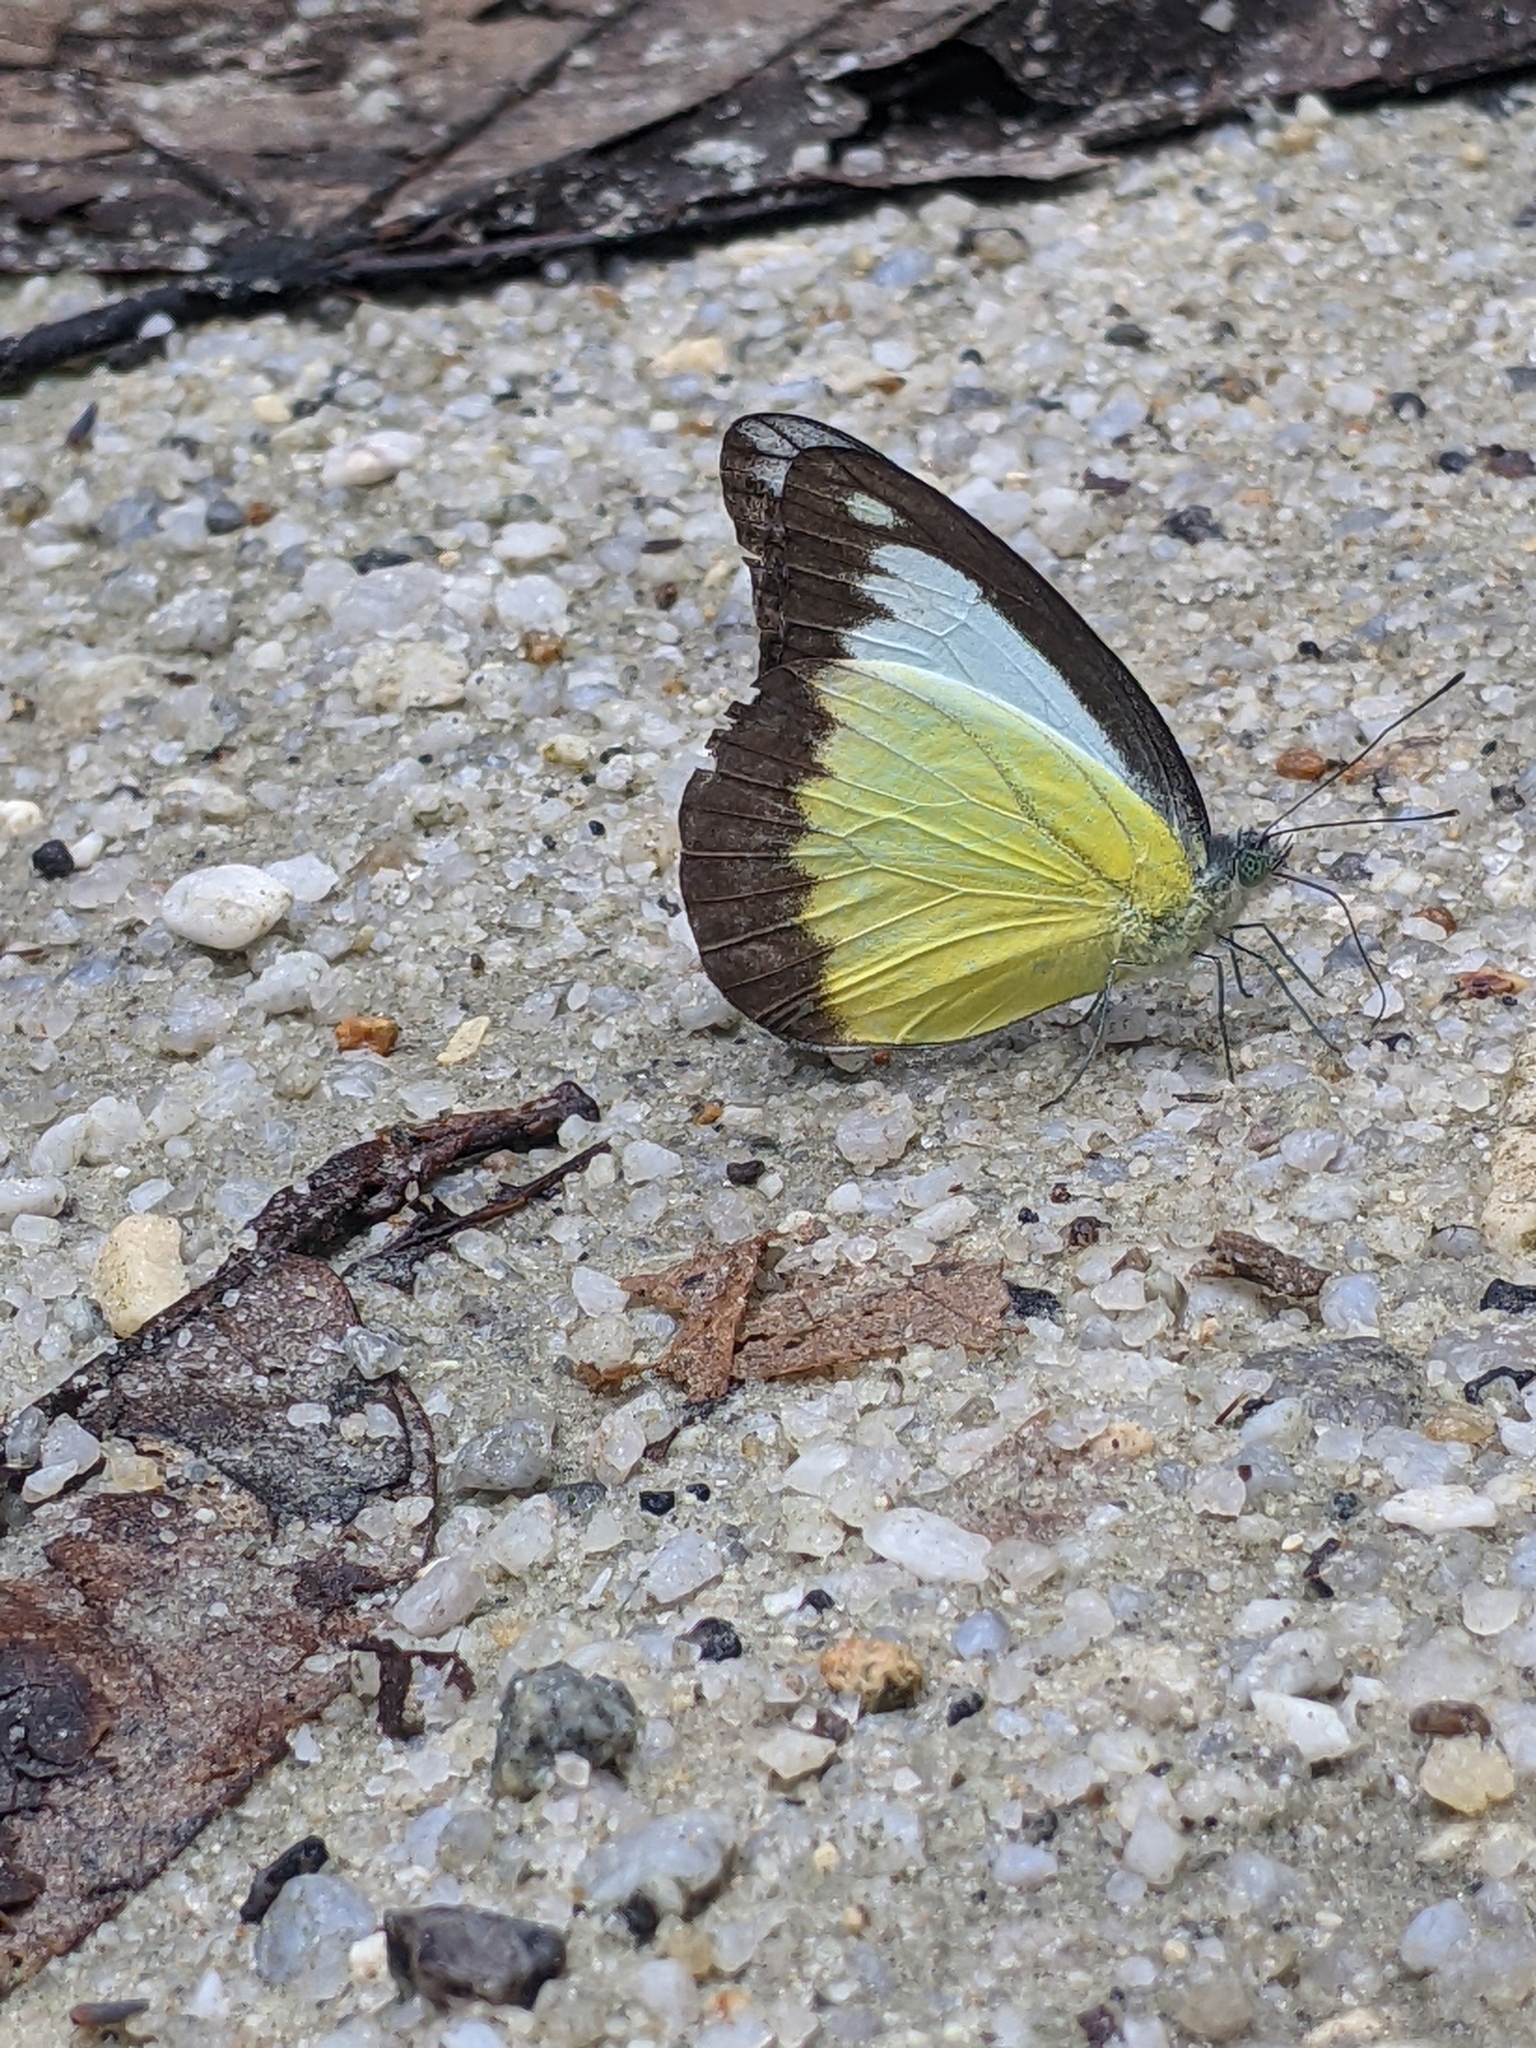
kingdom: Animalia
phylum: Arthropoda
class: Insecta
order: Lepidoptera
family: Pieridae
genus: Appias
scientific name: Appias lyncida
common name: Chocolate albatross
